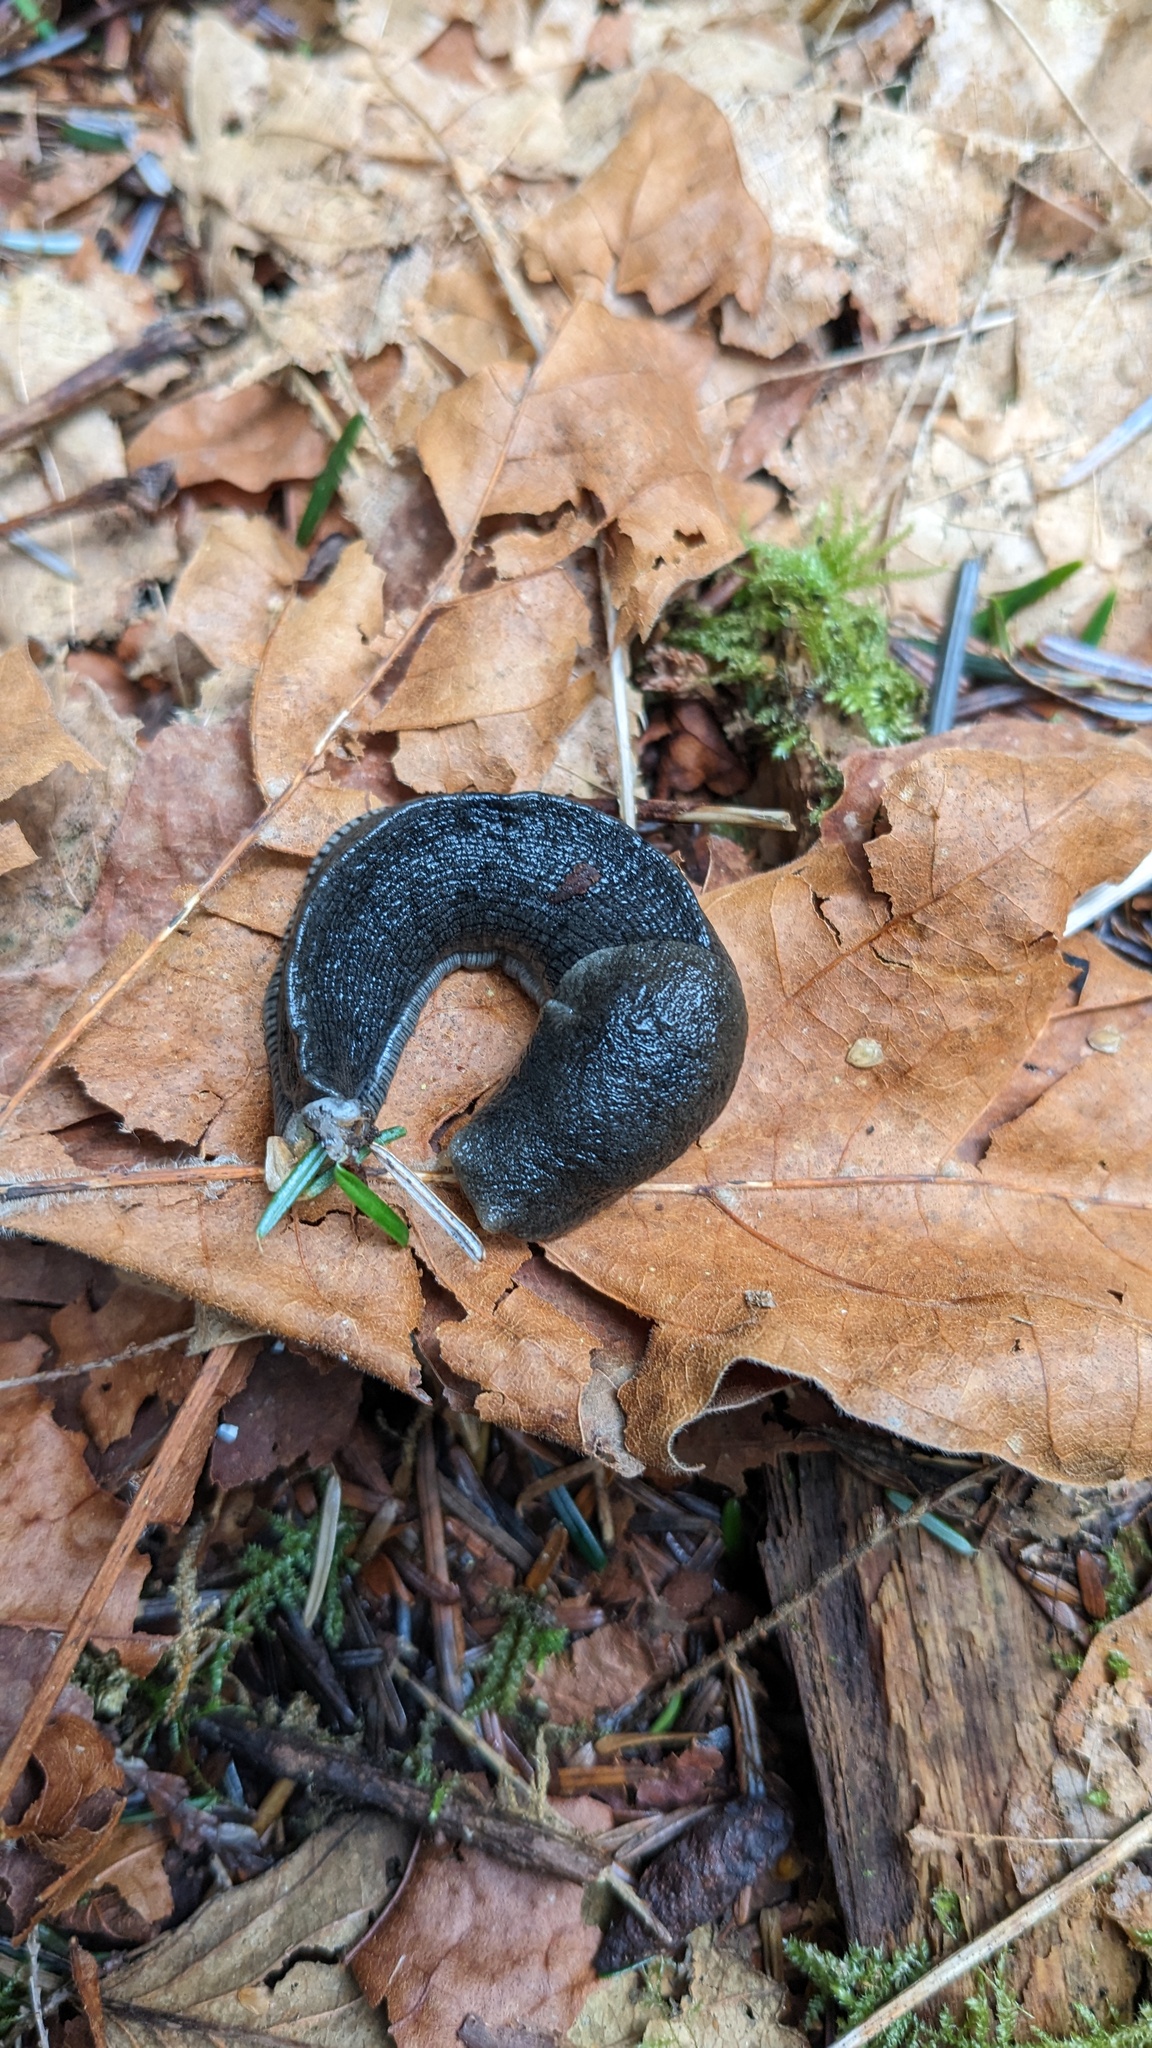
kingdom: Animalia
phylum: Mollusca
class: Gastropoda
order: Stylommatophora
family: Ariolimacidae
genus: Ariolimax
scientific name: Ariolimax columbianus
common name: Pacific banana slug
